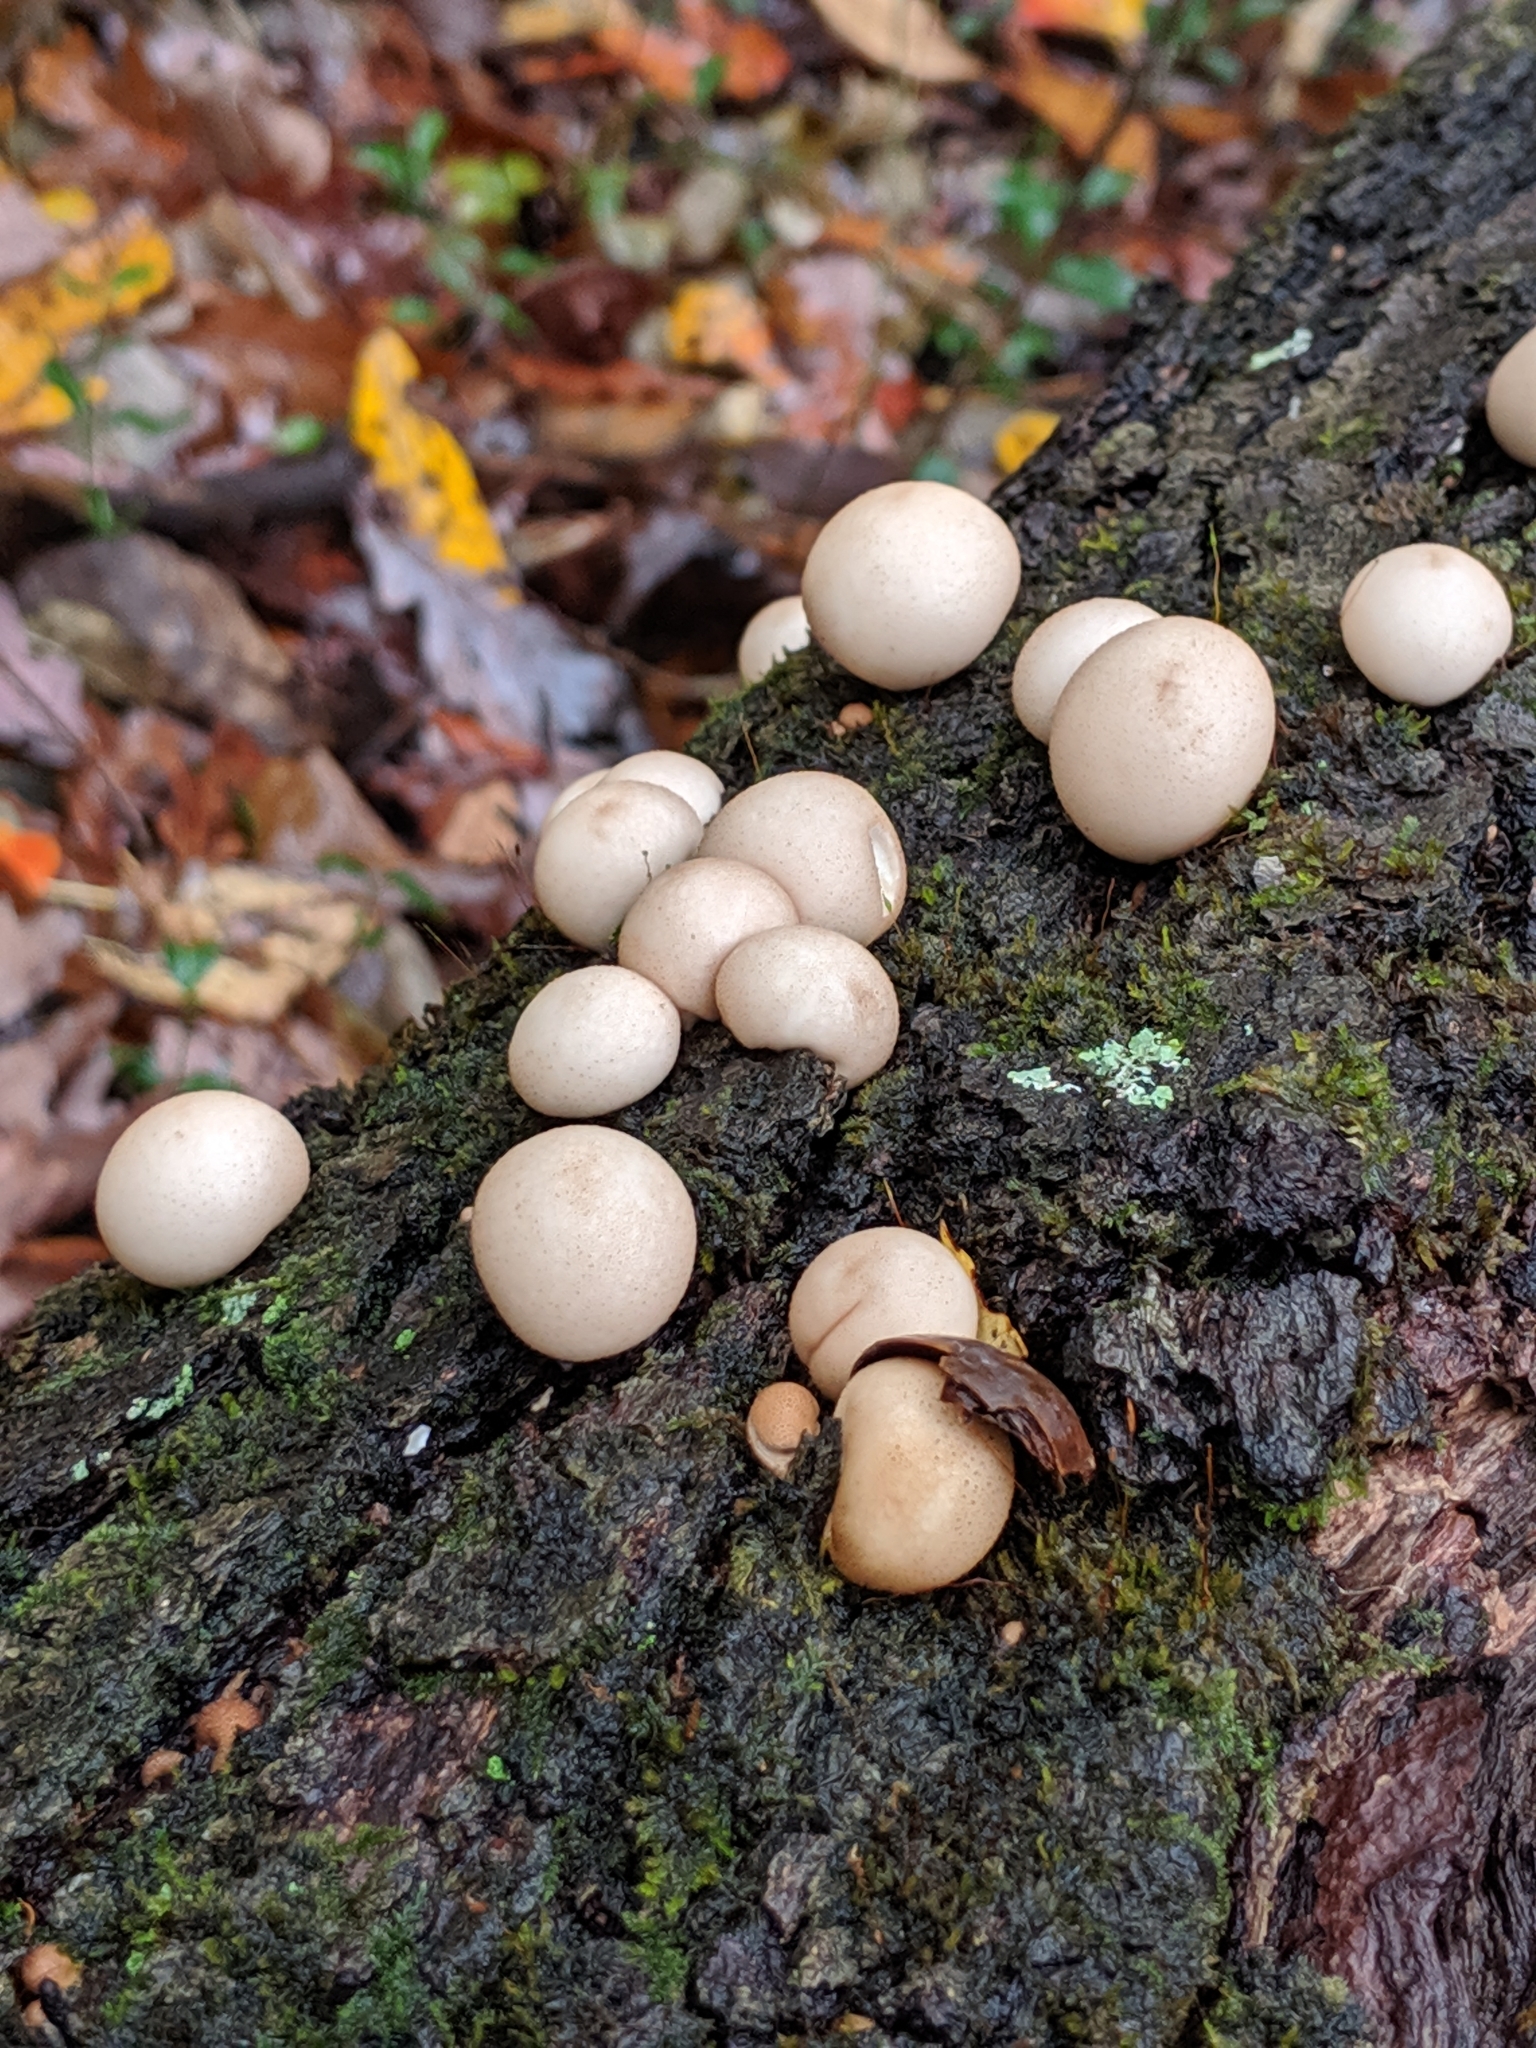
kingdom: Fungi
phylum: Basidiomycota
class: Agaricomycetes
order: Agaricales
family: Lycoperdaceae
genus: Apioperdon
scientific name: Apioperdon pyriforme
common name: Pear-shaped puffball
